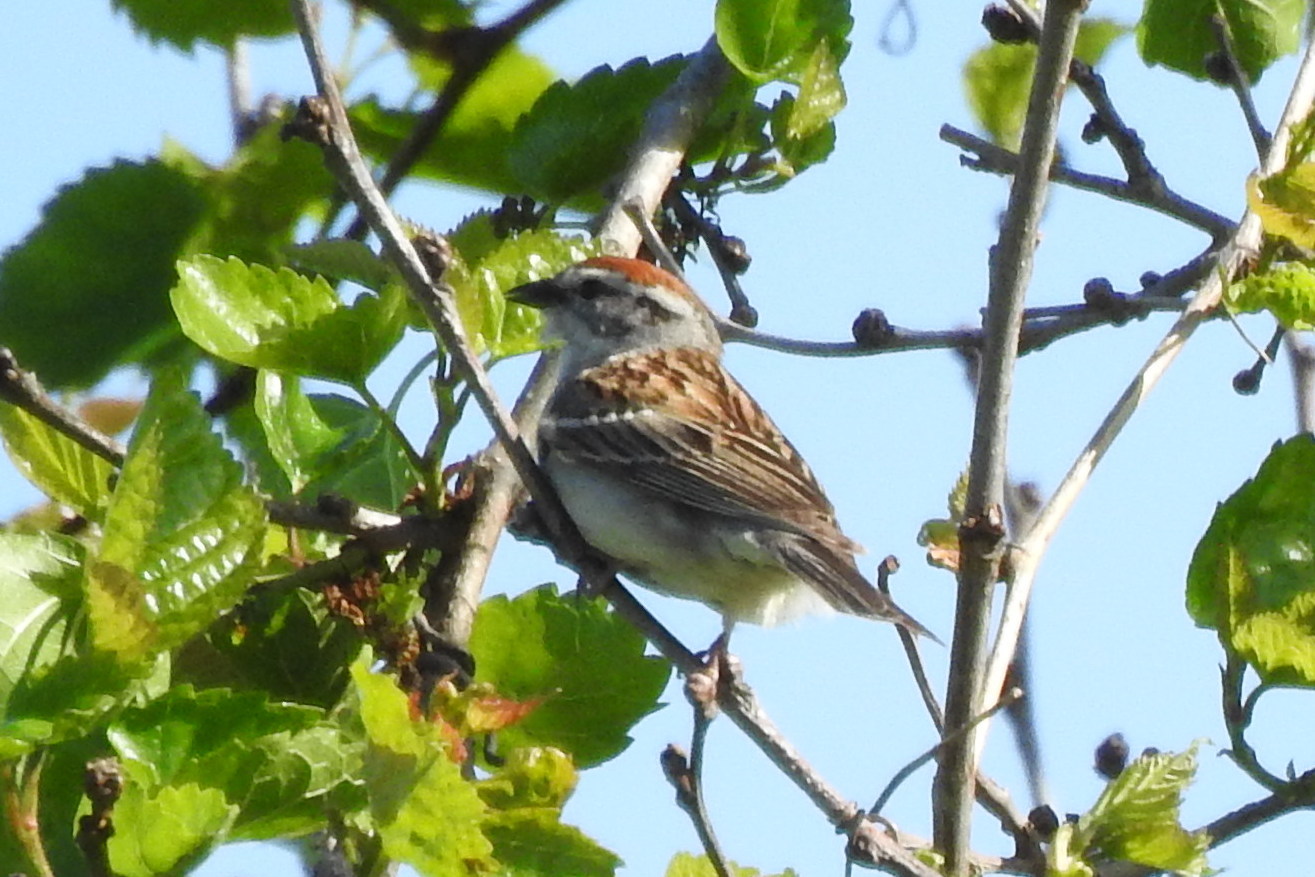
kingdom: Animalia
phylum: Chordata
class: Aves
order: Passeriformes
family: Passerellidae
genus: Spizella
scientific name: Spizella passerina
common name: Chipping sparrow
